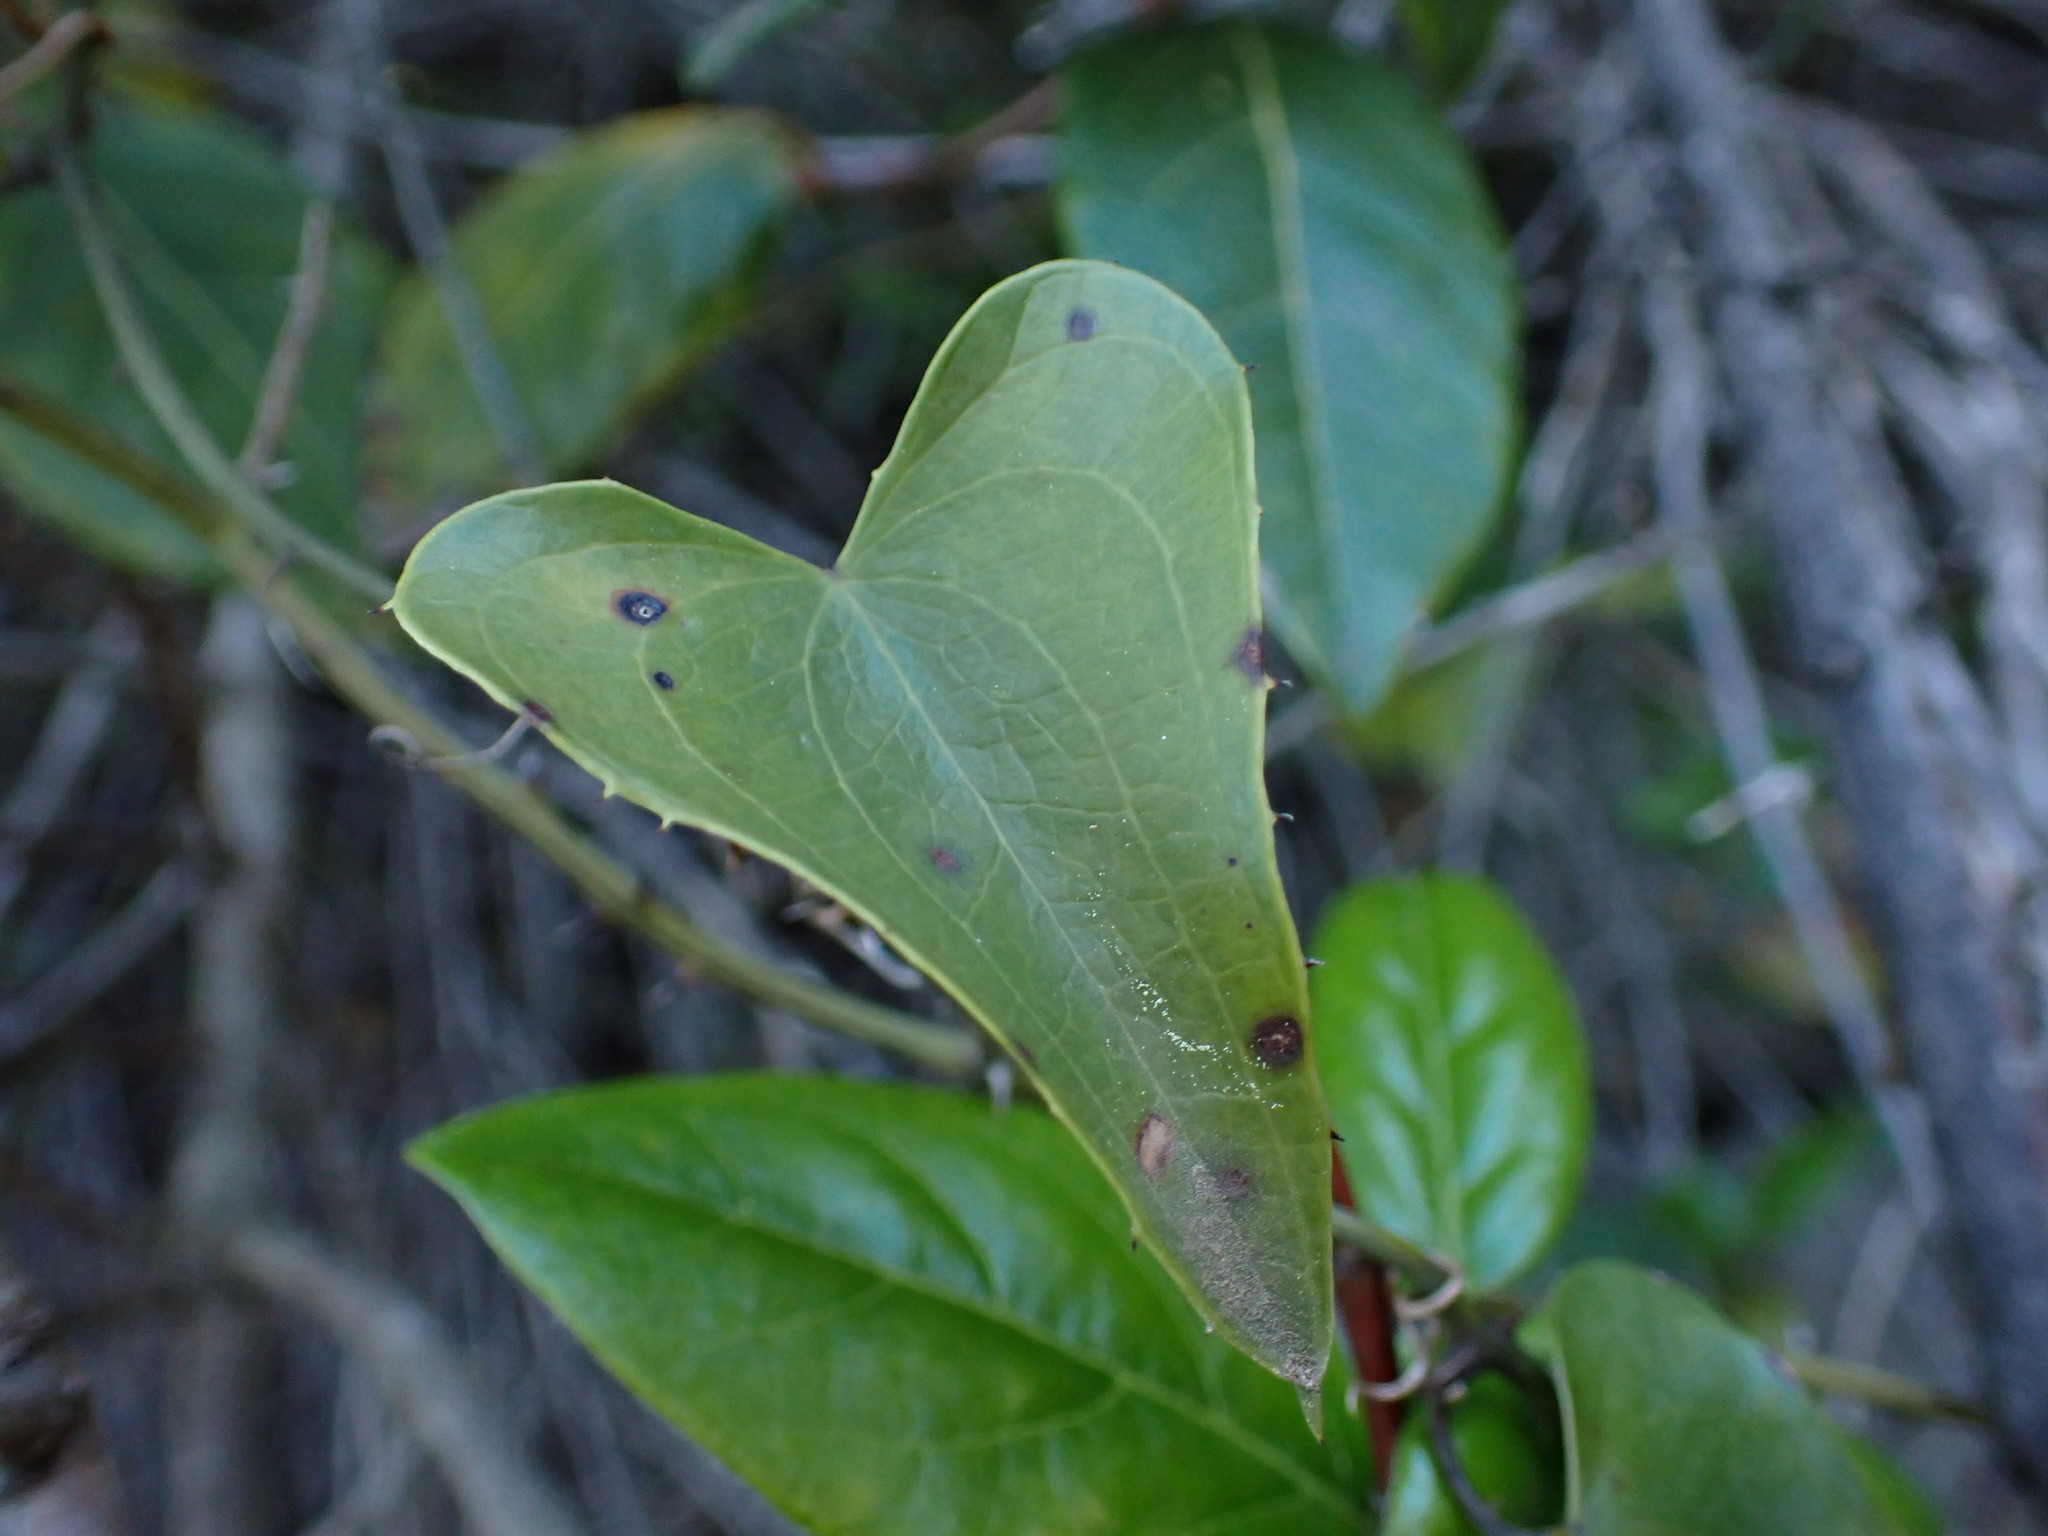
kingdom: Plantae
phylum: Tracheophyta
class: Liliopsida
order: Liliales
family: Smilacaceae
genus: Smilax
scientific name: Smilax aspera
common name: Common smilax
